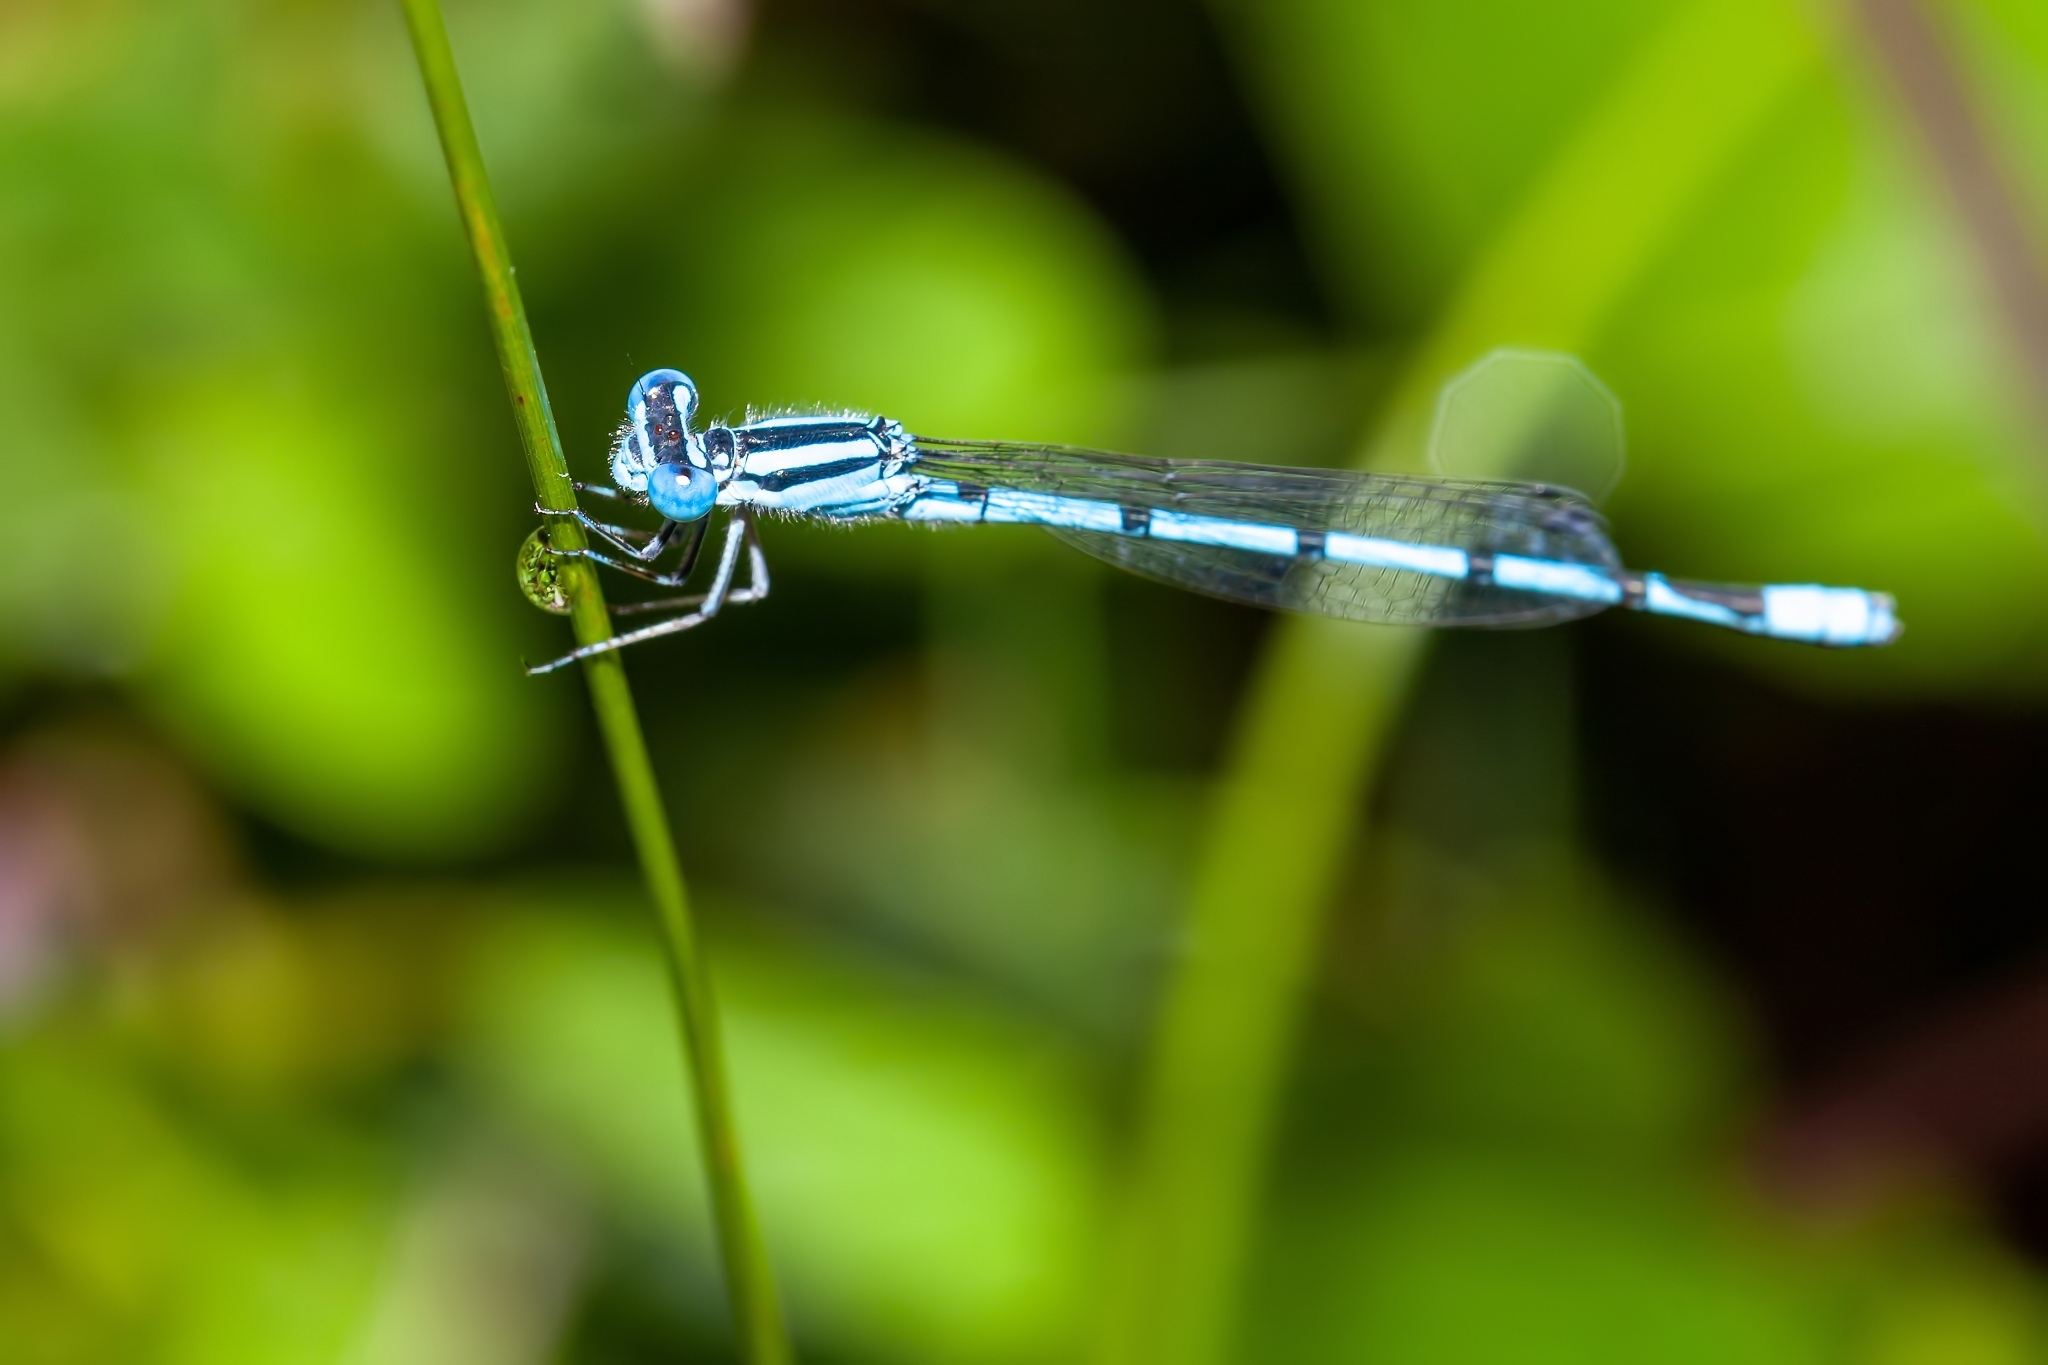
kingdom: Animalia
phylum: Arthropoda
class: Insecta
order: Odonata
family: Coenagrionidae
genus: Enallagma
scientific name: Enallagma doubledayi
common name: Atlantic bluet
